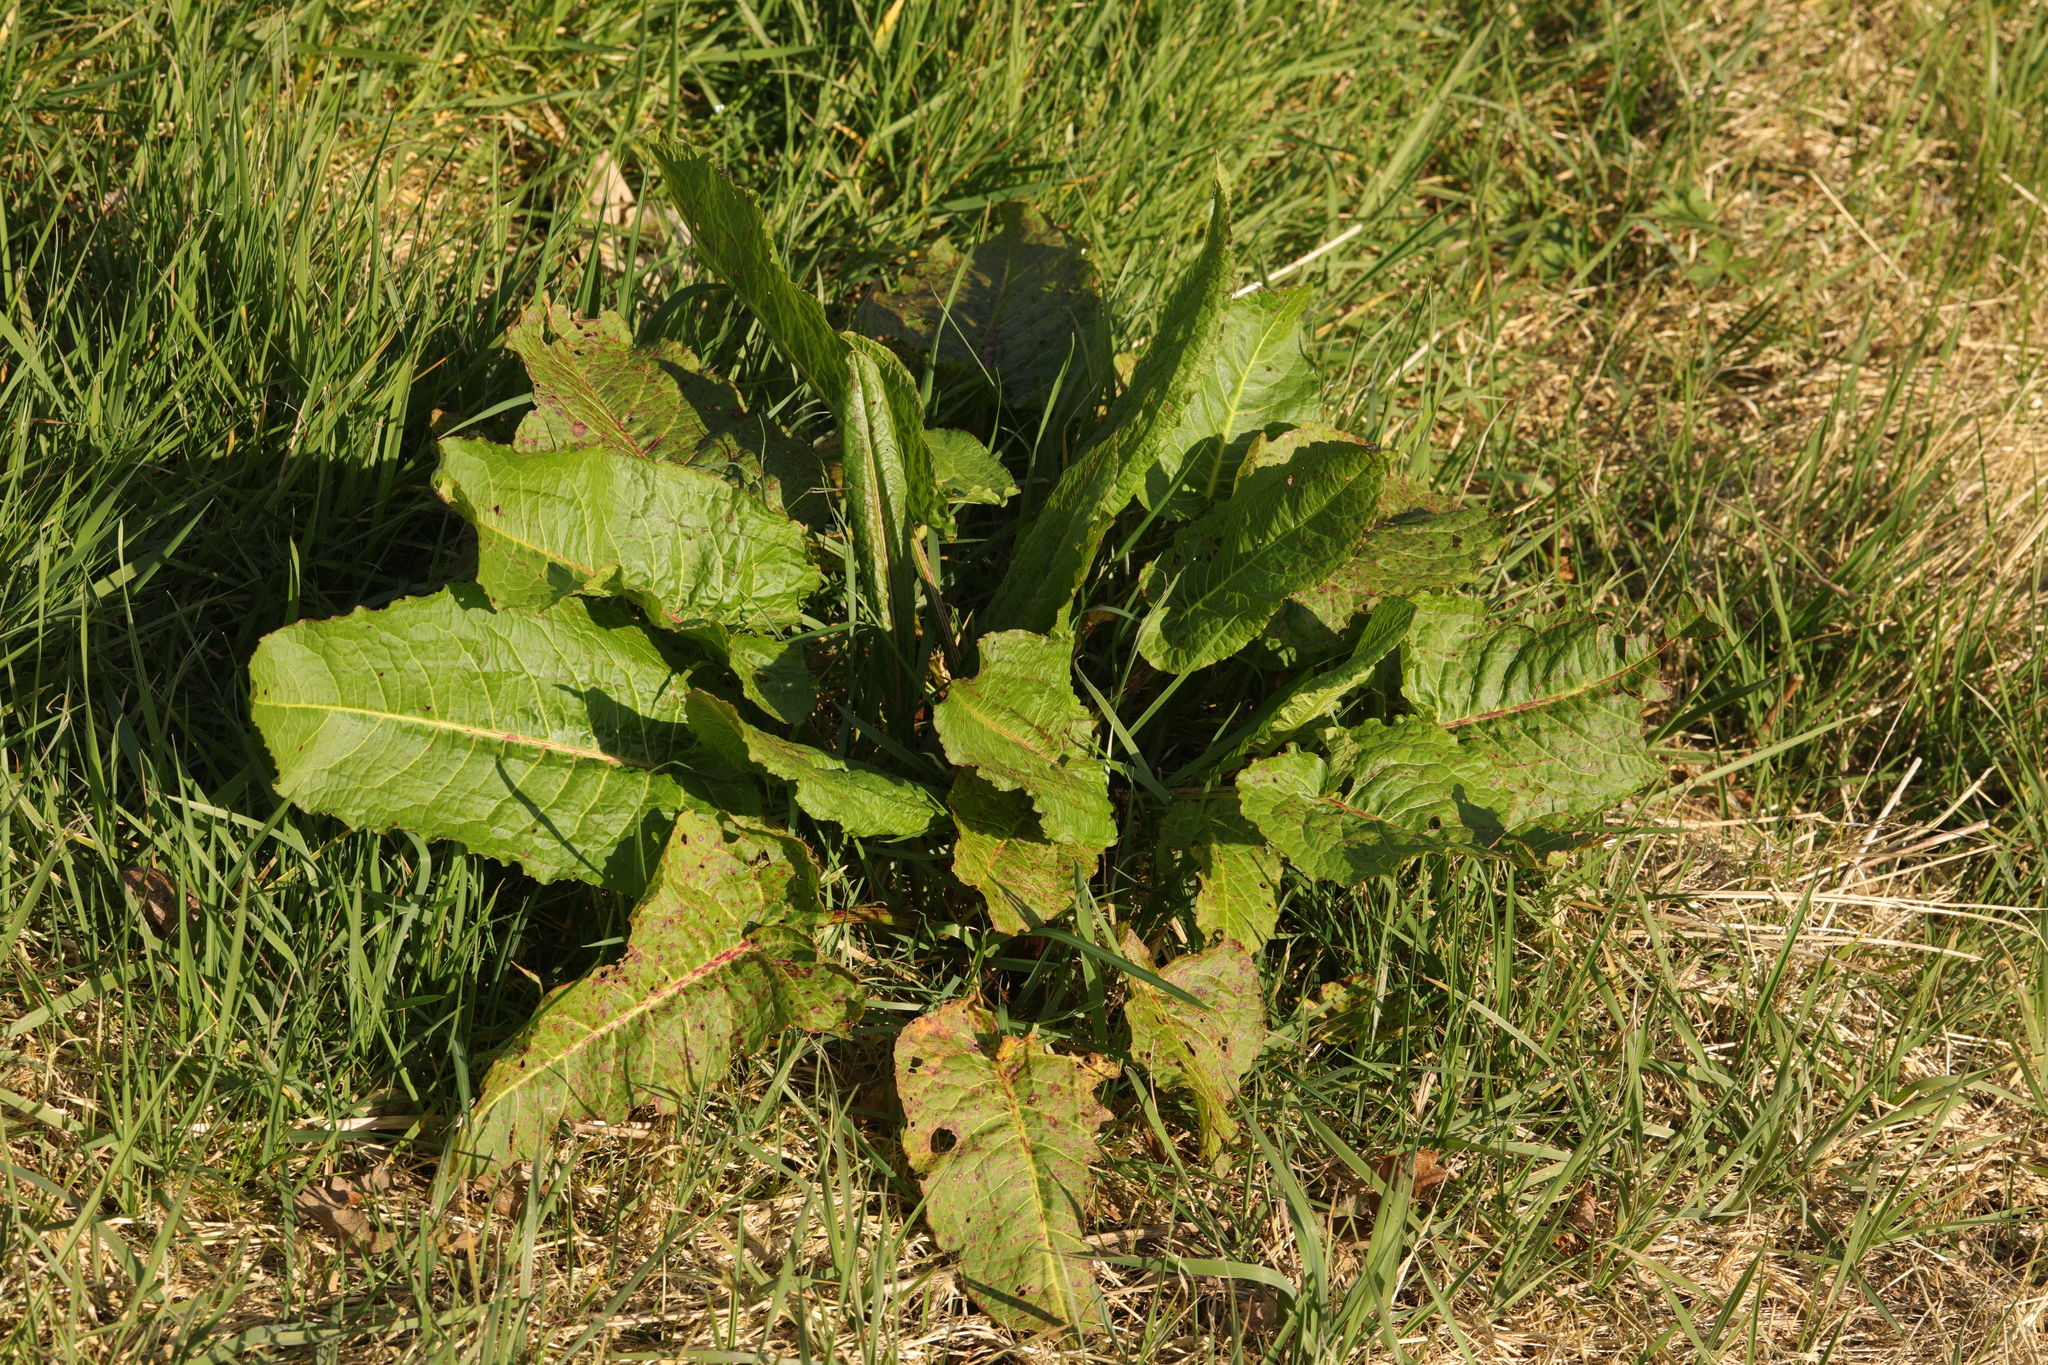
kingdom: Plantae
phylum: Tracheophyta
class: Magnoliopsida
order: Caryophyllales
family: Polygonaceae
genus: Rumex
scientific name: Rumex obtusifolius
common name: Bitter dock
